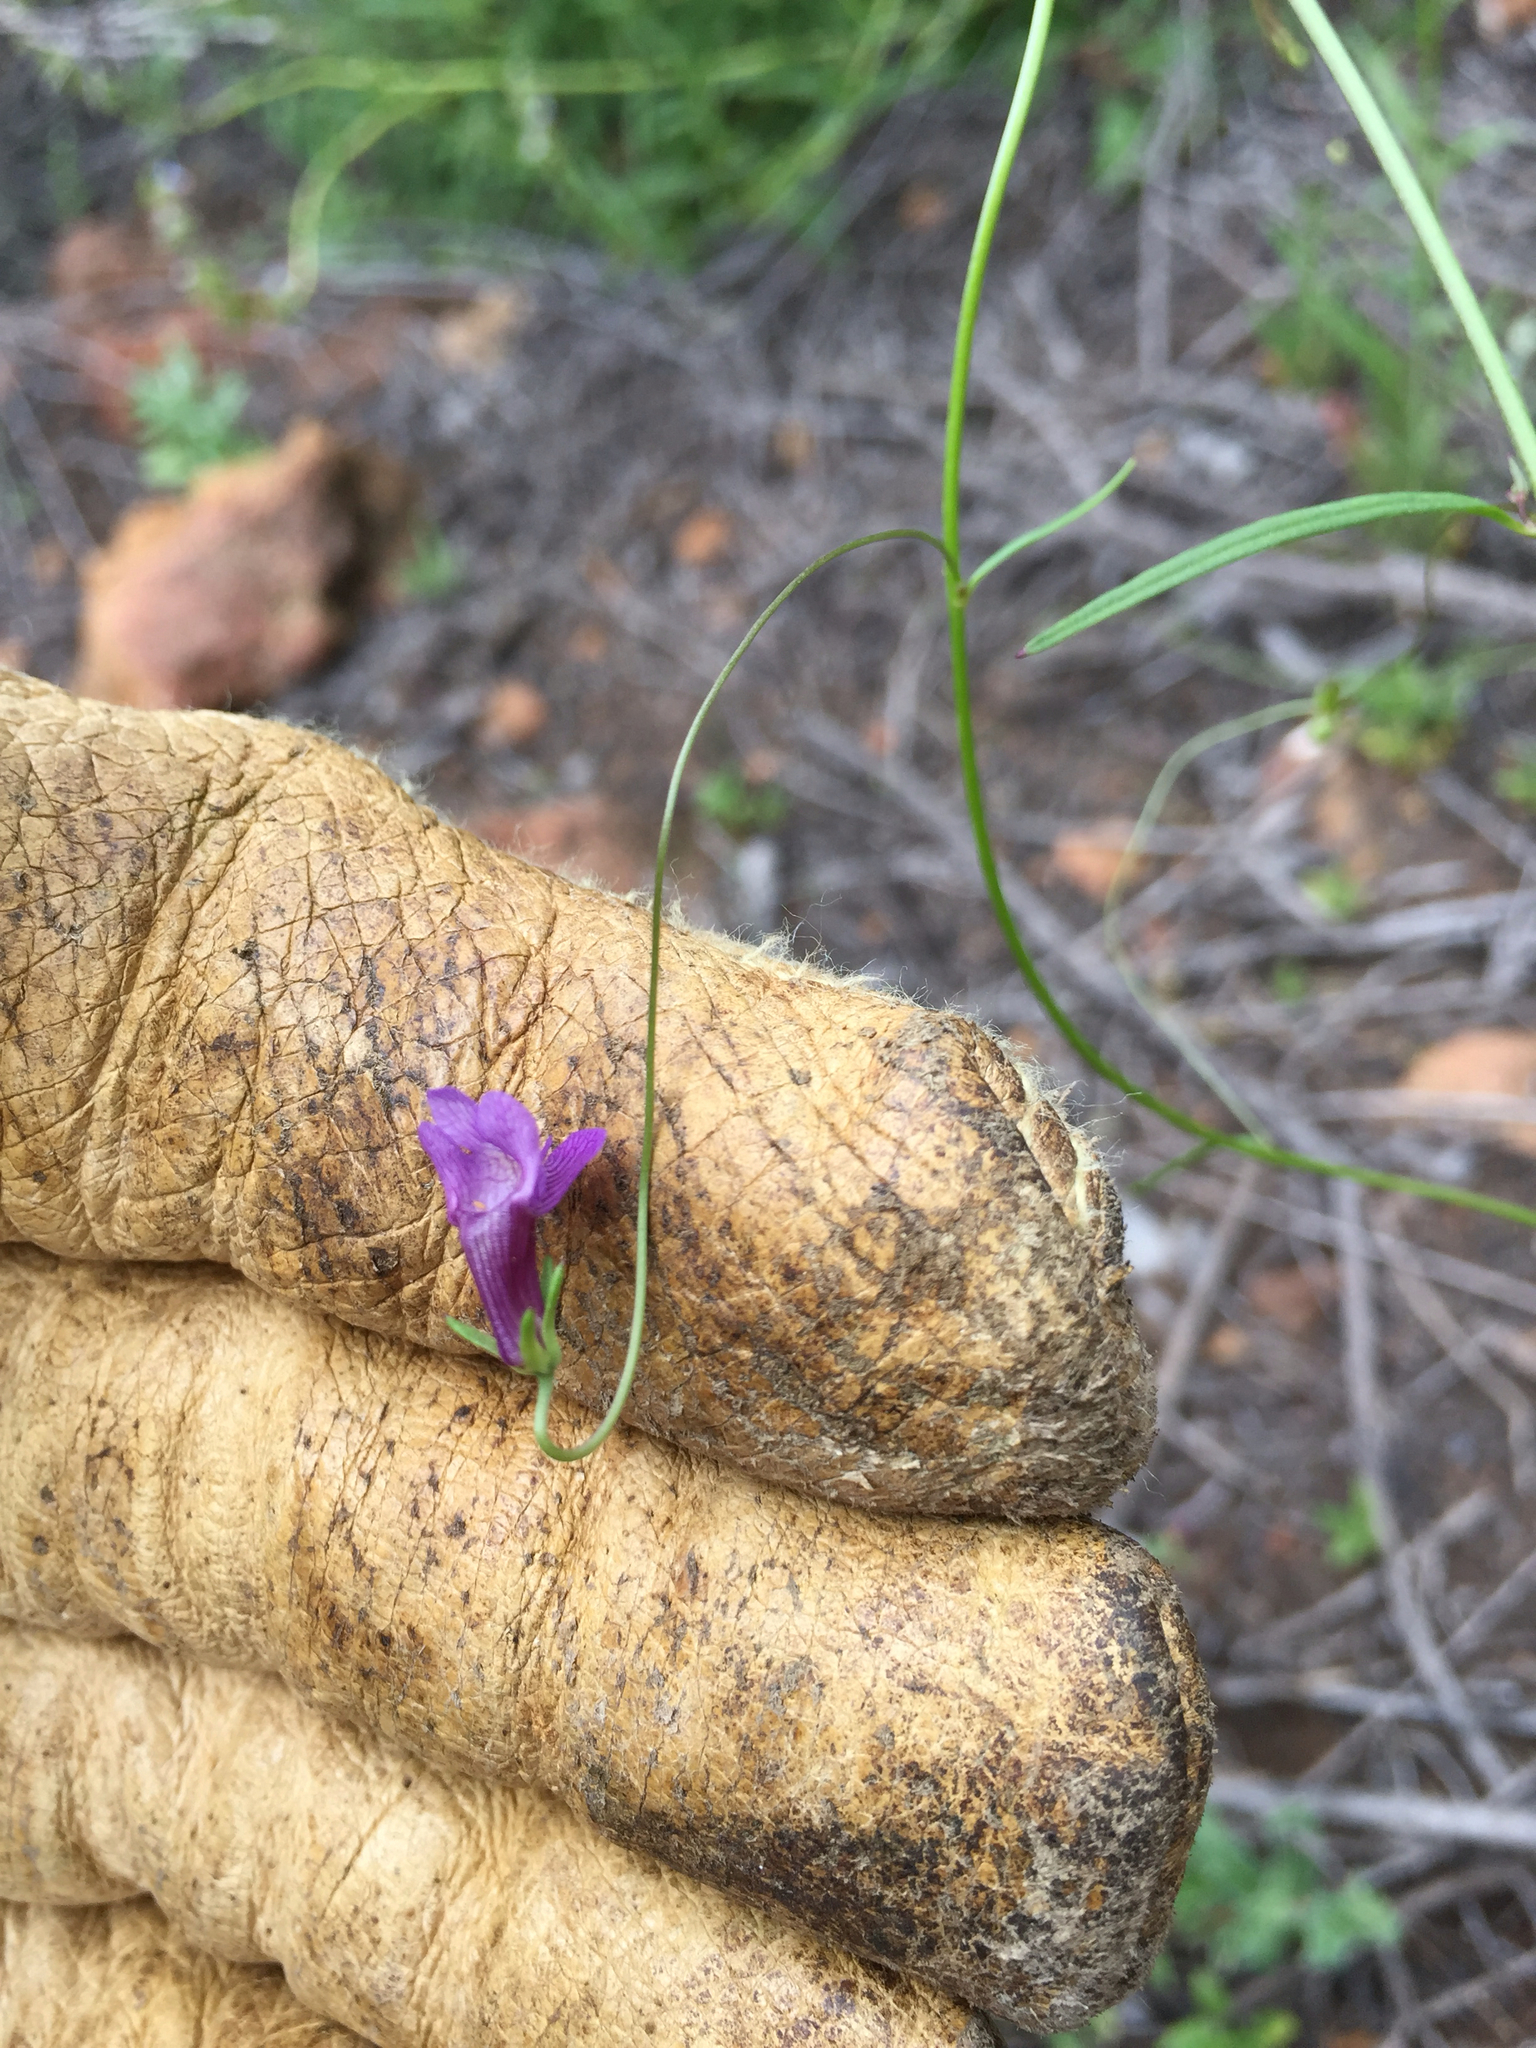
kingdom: Plantae
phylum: Tracheophyta
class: Magnoliopsida
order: Lamiales
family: Plantaginaceae
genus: Neogaerrhinum
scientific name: Neogaerrhinum strictum
